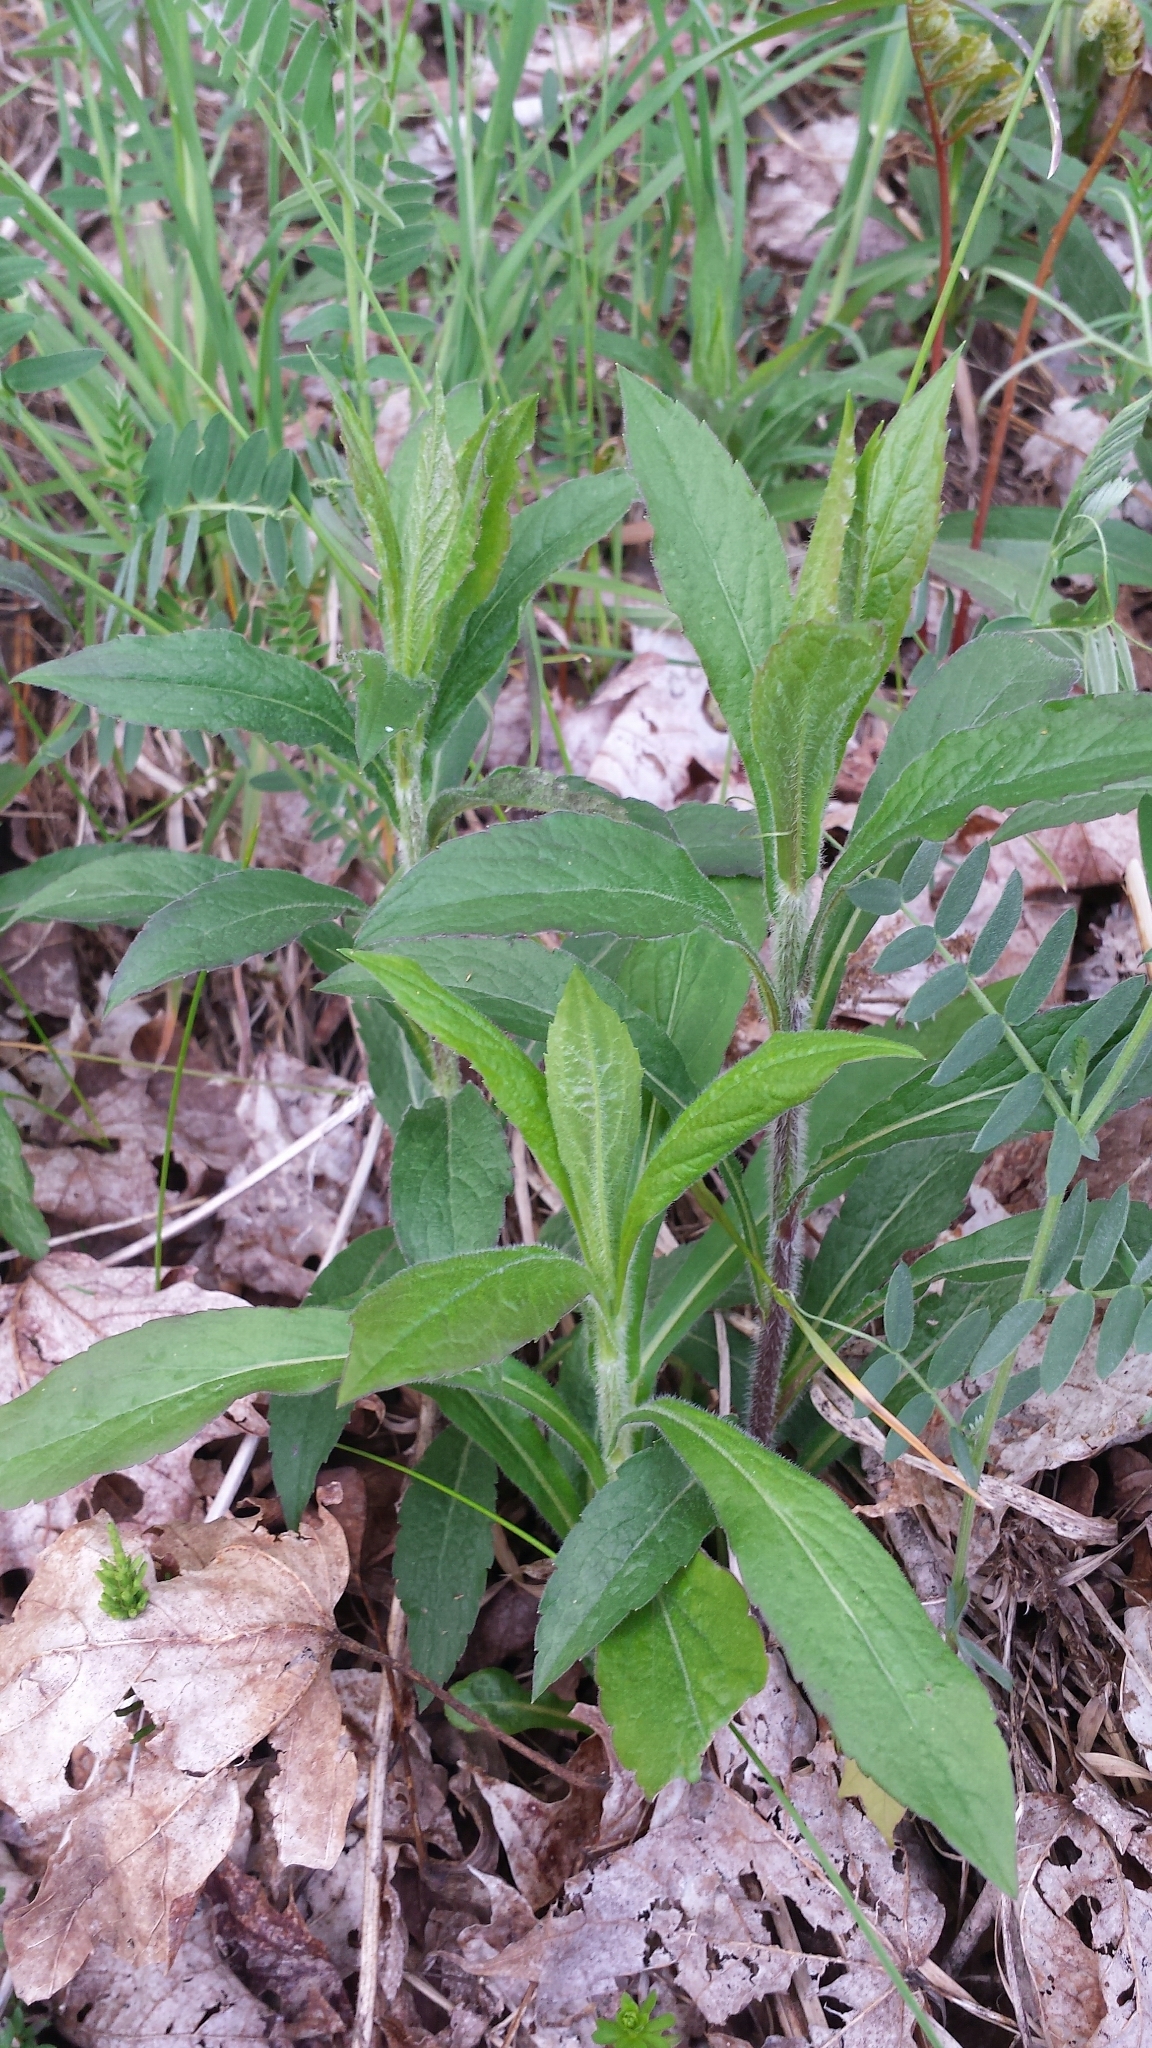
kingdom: Plantae
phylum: Tracheophyta
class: Magnoliopsida
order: Asterales
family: Asteraceae
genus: Solidago
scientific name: Solidago rugosa
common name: Rough-stemmed goldenrod
